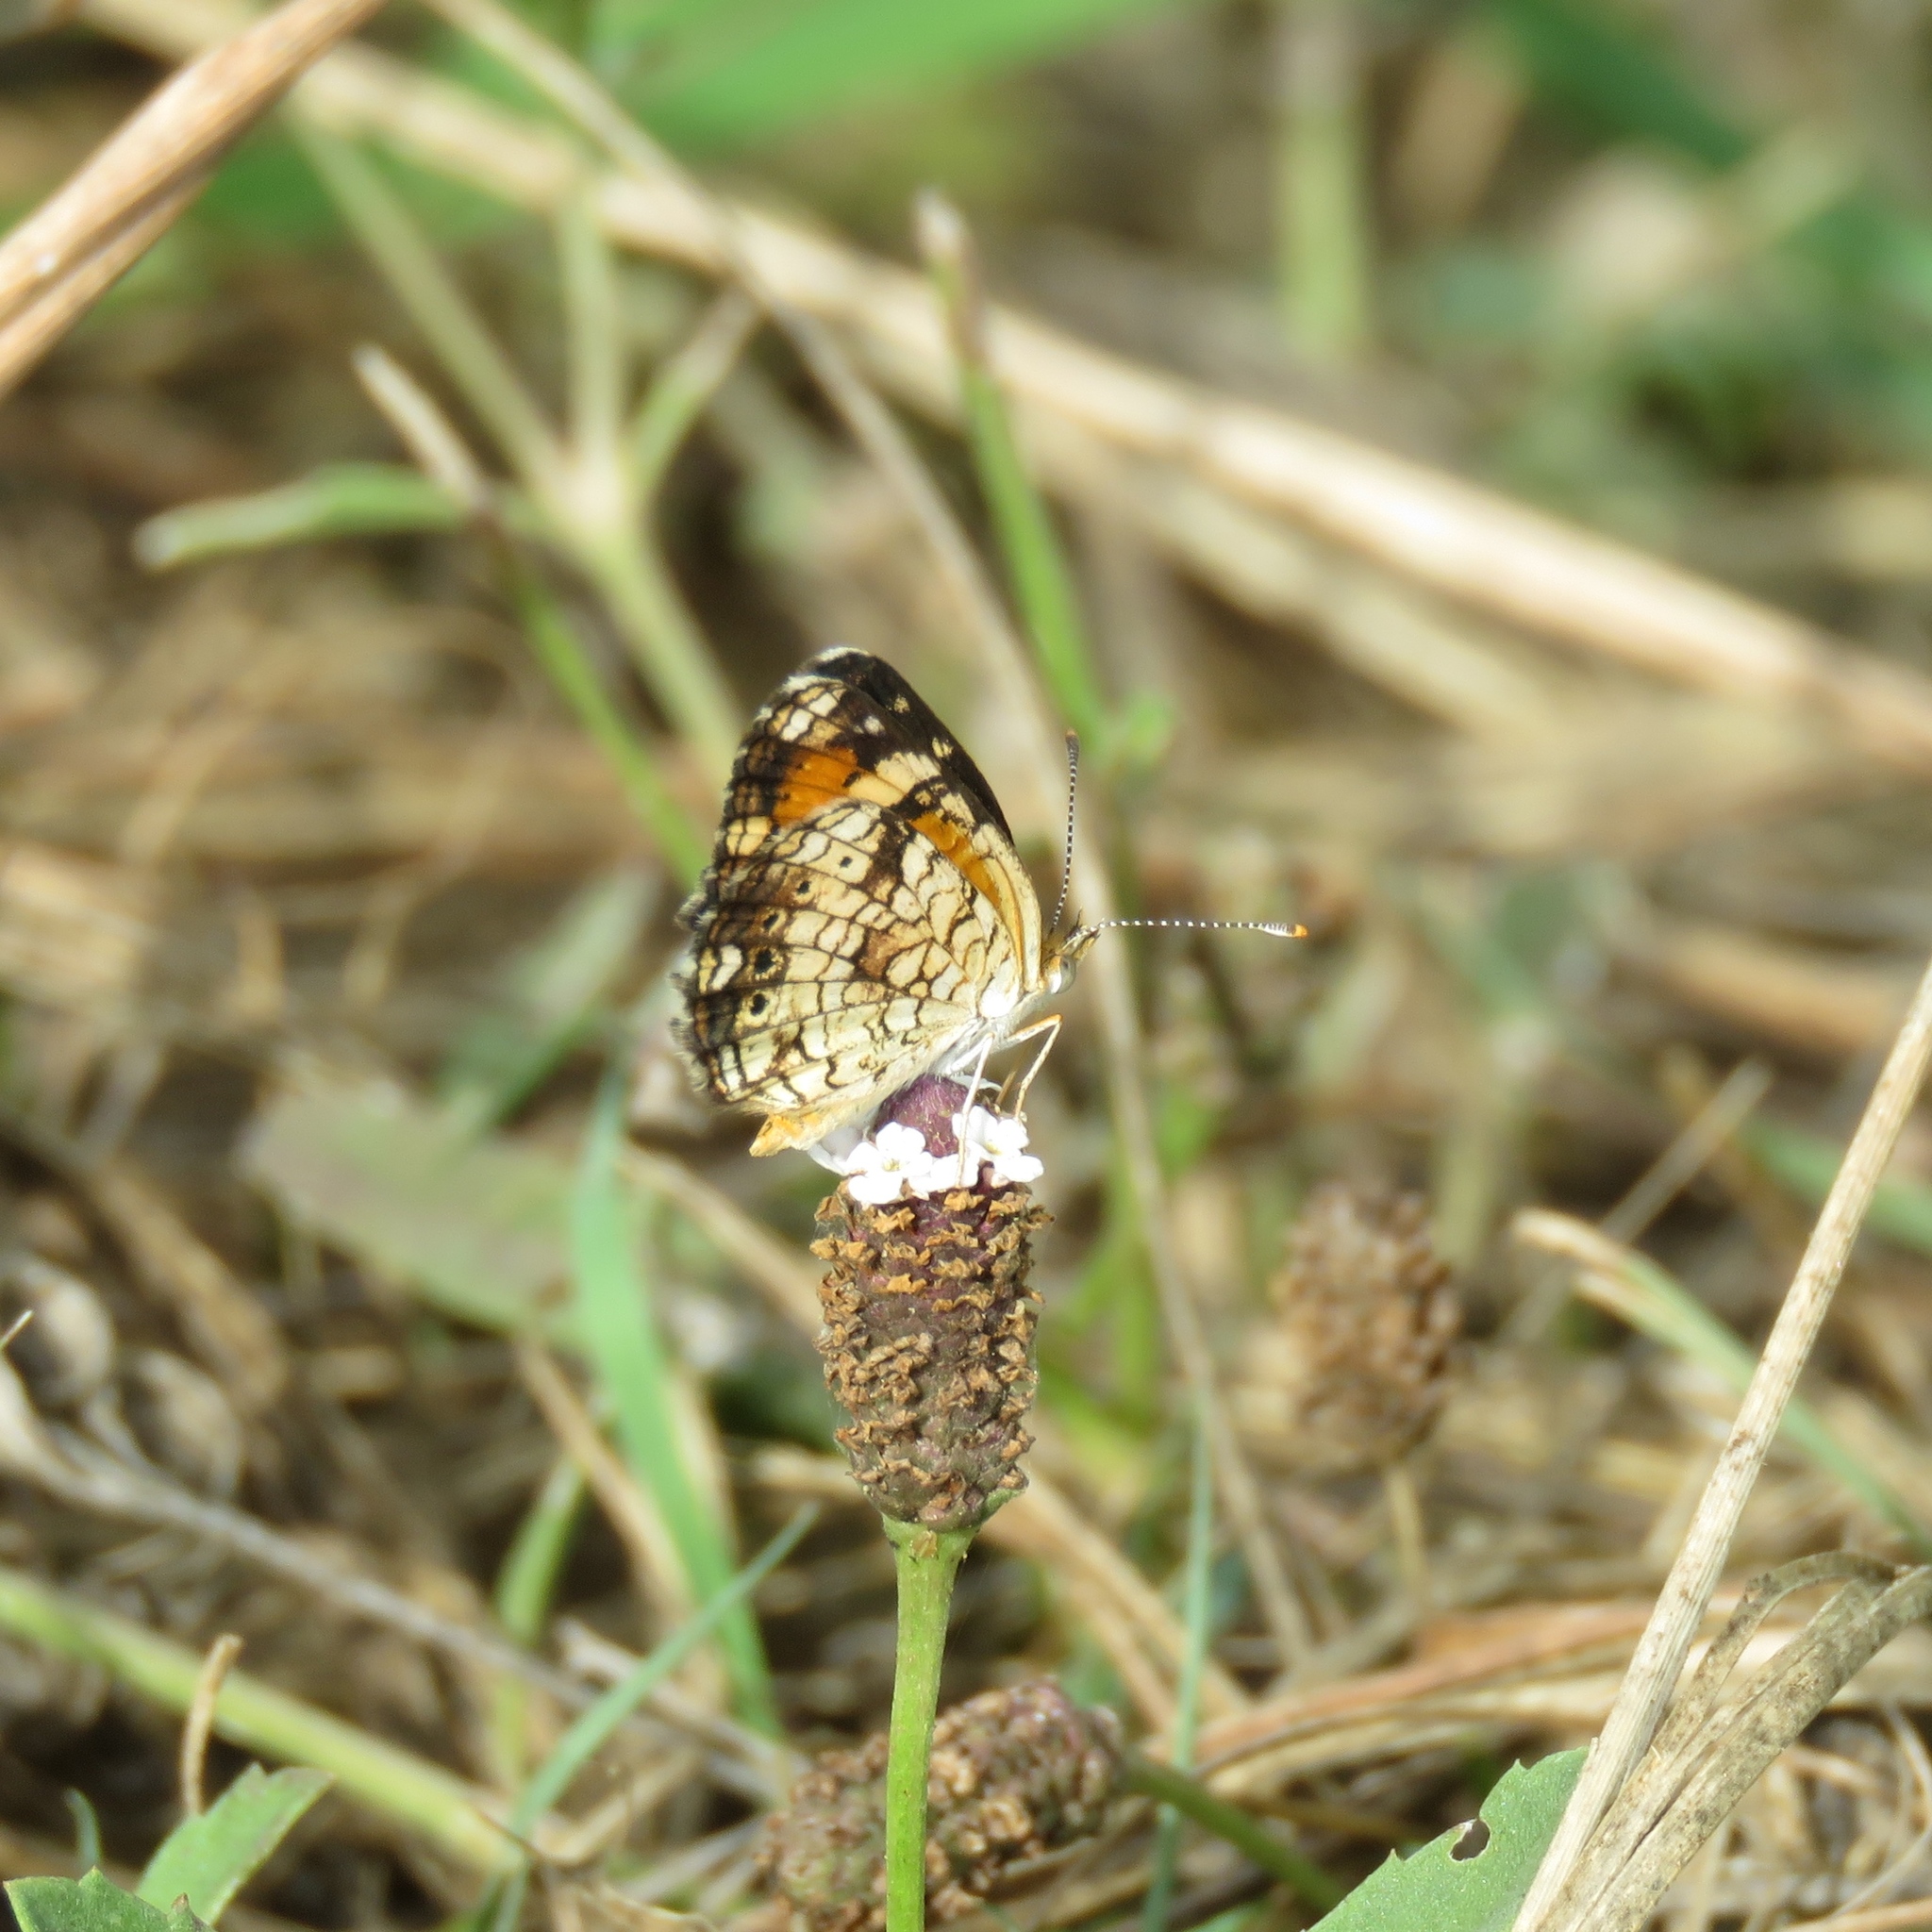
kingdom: Animalia
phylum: Arthropoda
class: Insecta
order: Lepidoptera
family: Nymphalidae
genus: Phyciodes
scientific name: Phyciodes phaon
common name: Phaon crescent
